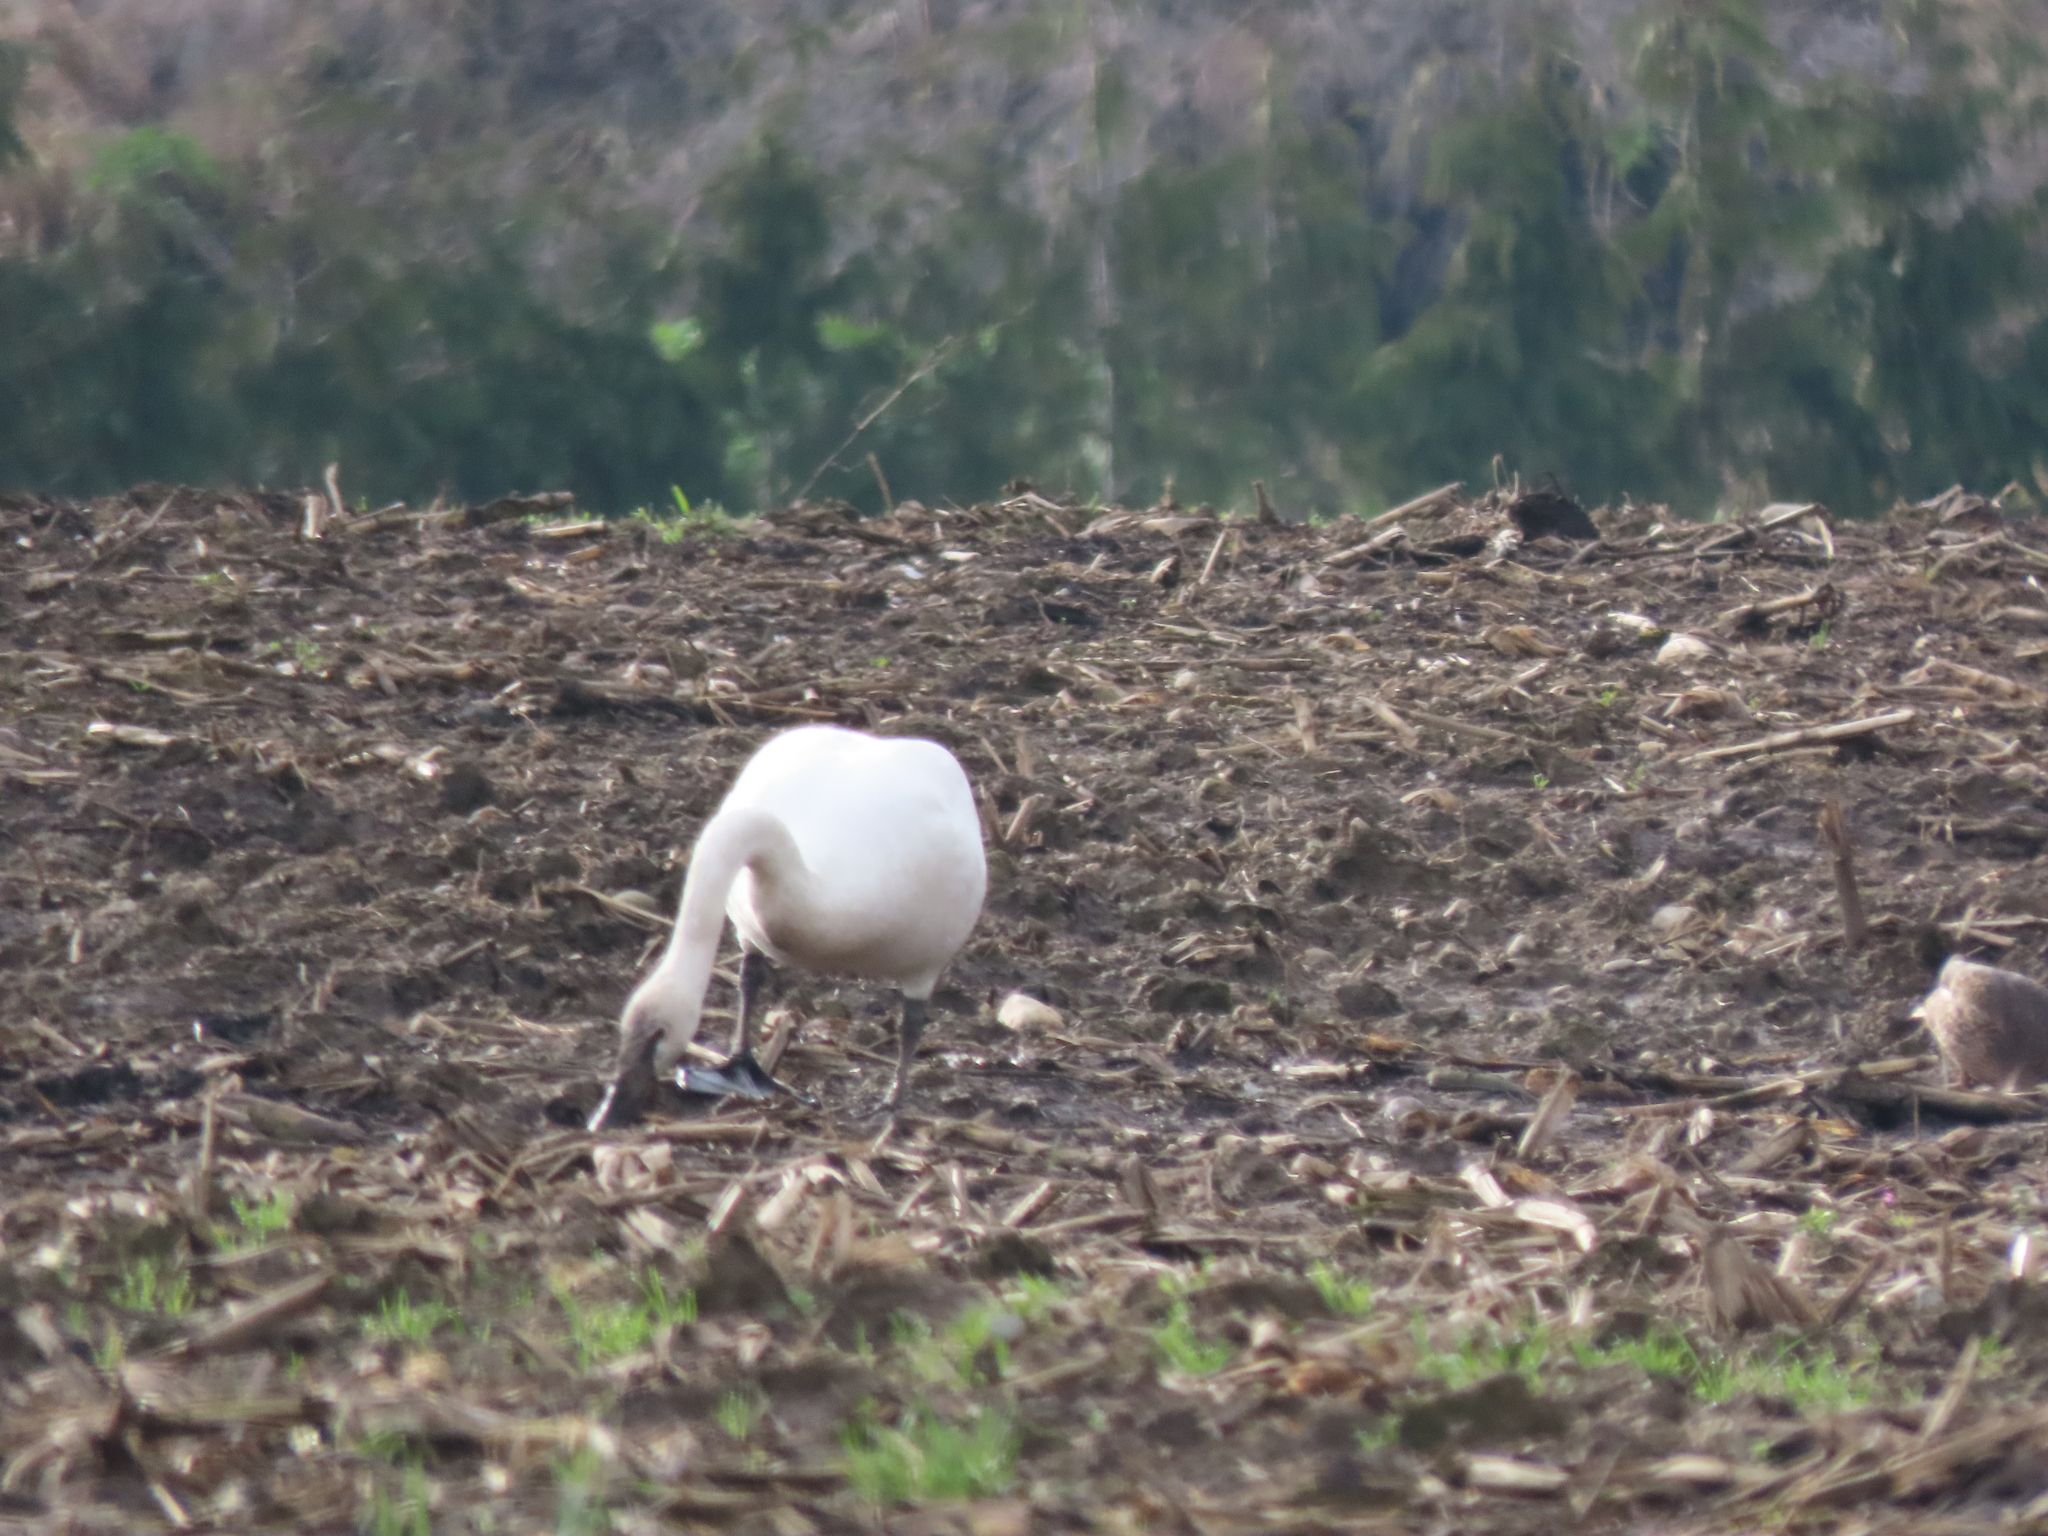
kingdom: Animalia
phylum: Chordata
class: Aves
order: Anseriformes
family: Anatidae
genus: Cygnus
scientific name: Cygnus buccinator
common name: Trumpeter swan
